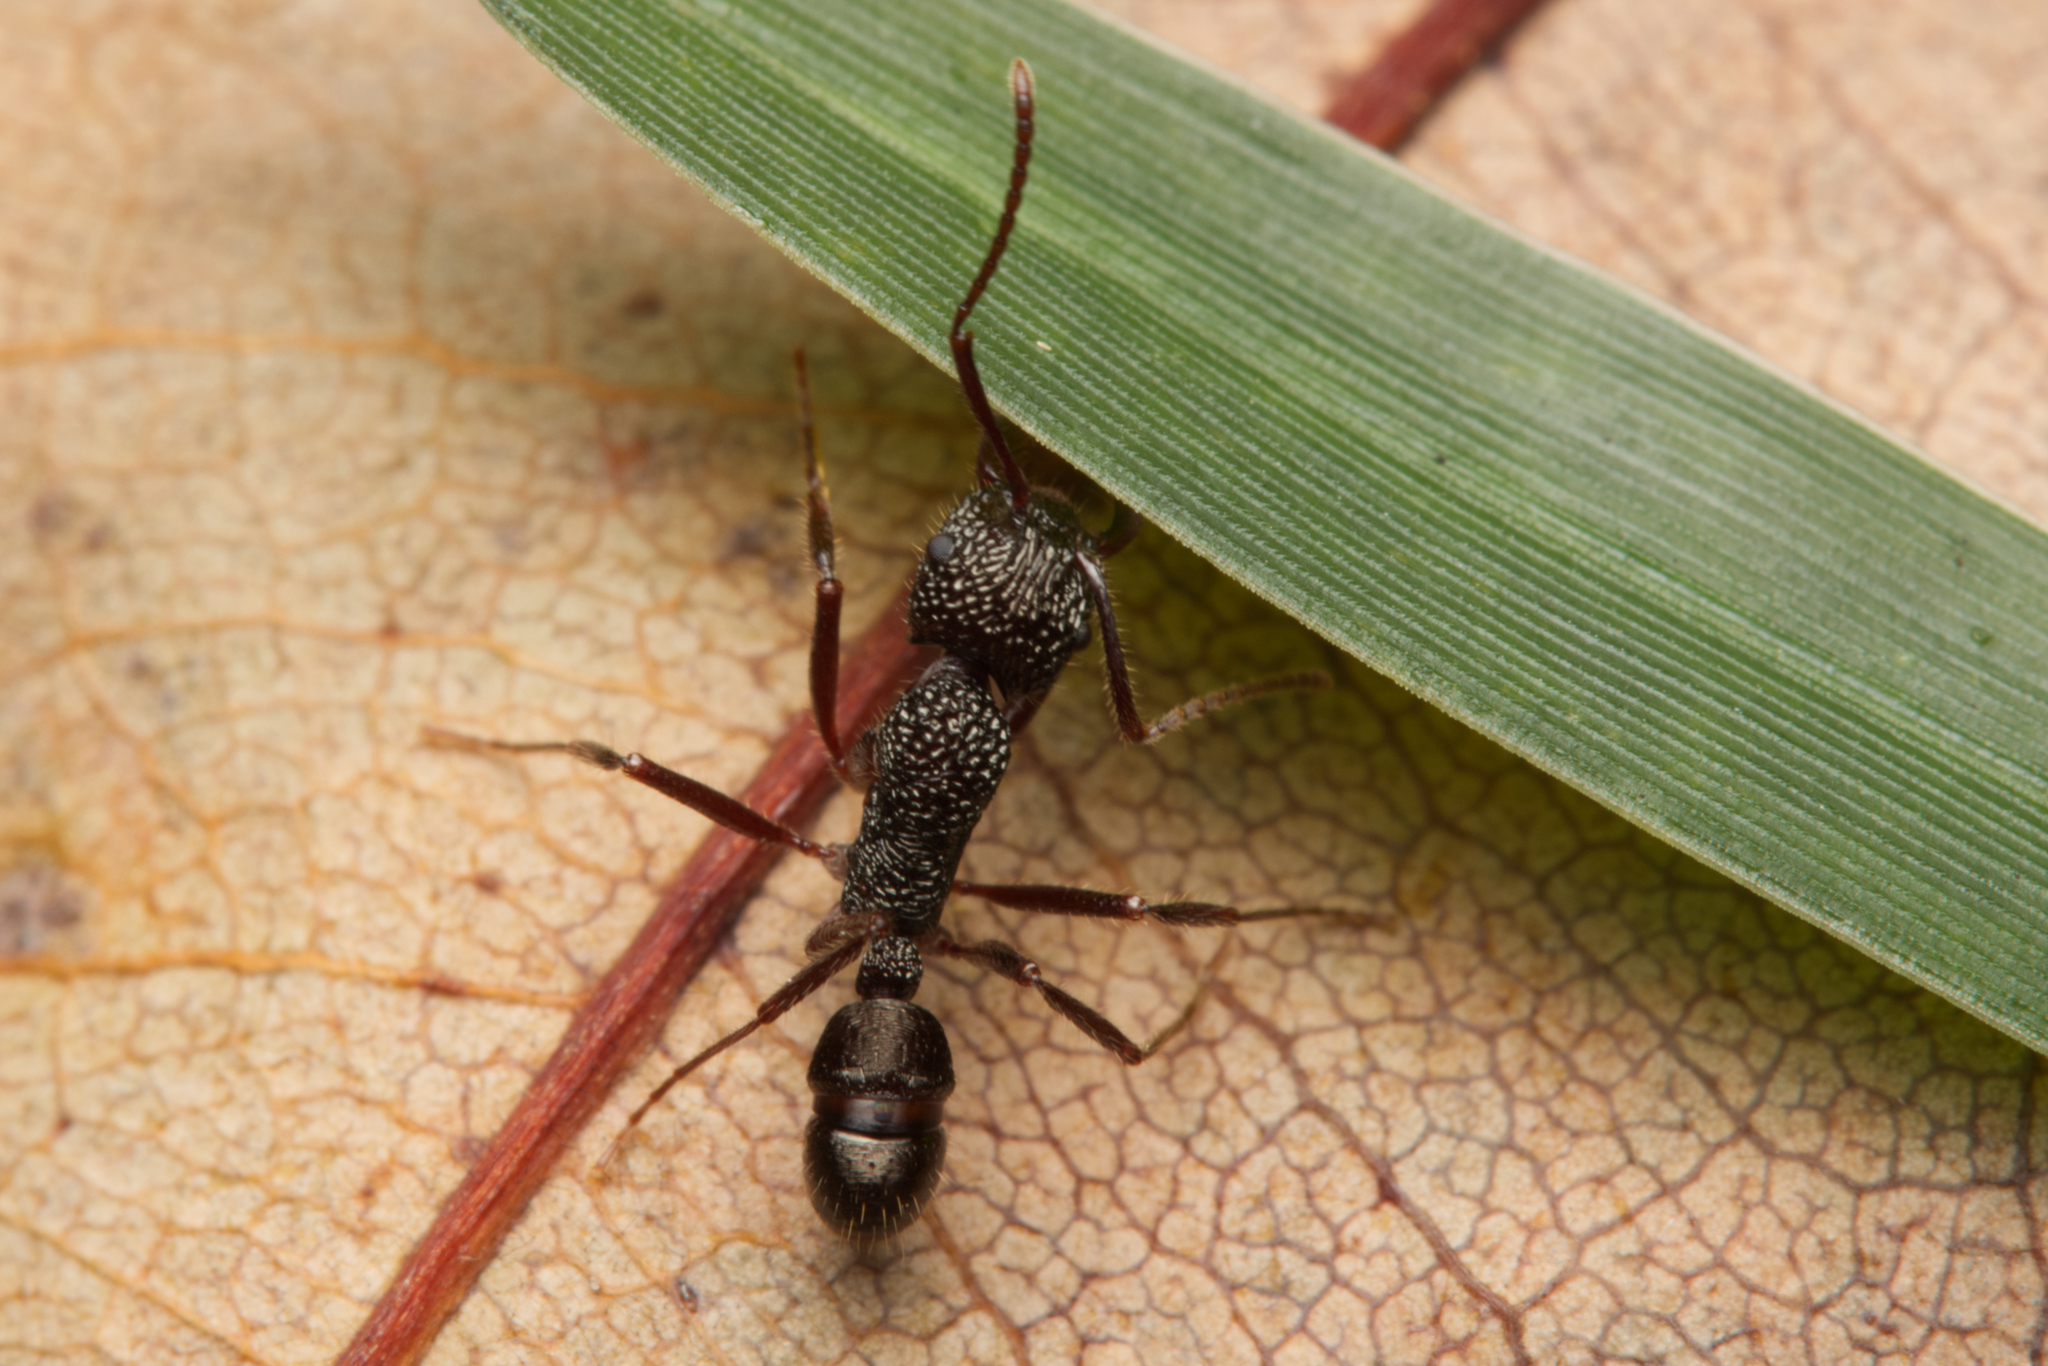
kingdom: Animalia
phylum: Arthropoda
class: Insecta
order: Hymenoptera
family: Formicidae
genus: Rhytidoponera
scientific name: Rhytidoponera impressa
